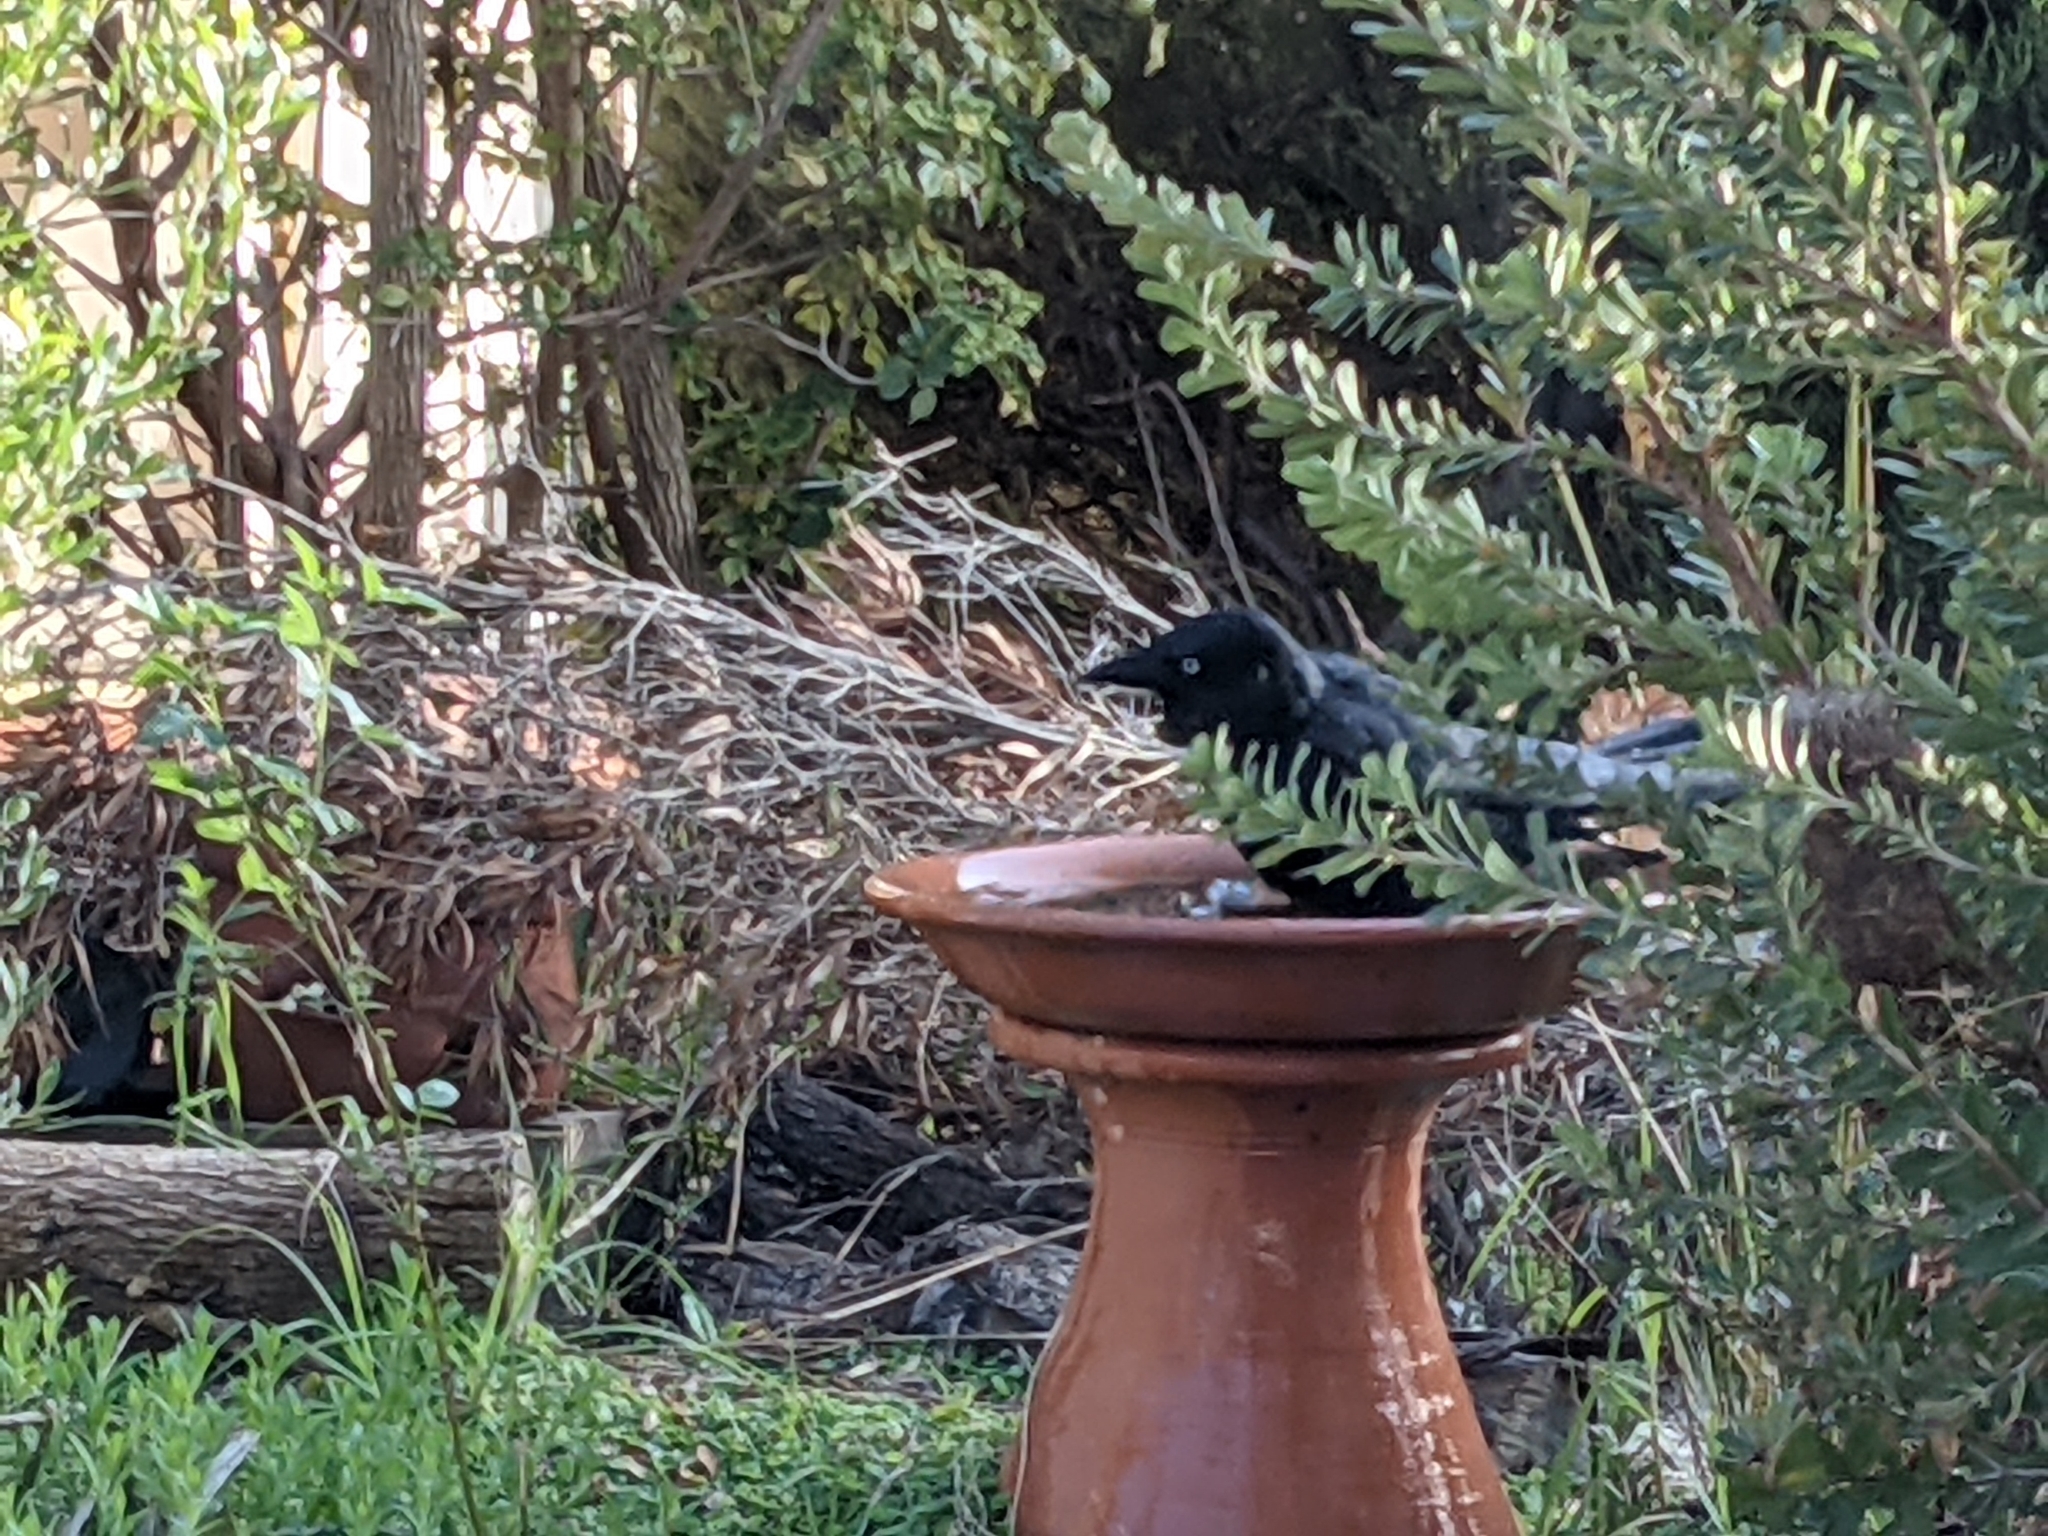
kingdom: Animalia
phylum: Chordata
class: Aves
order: Passeriformes
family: Corvidae
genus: Corvus
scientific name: Corvus mellori
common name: Little raven
